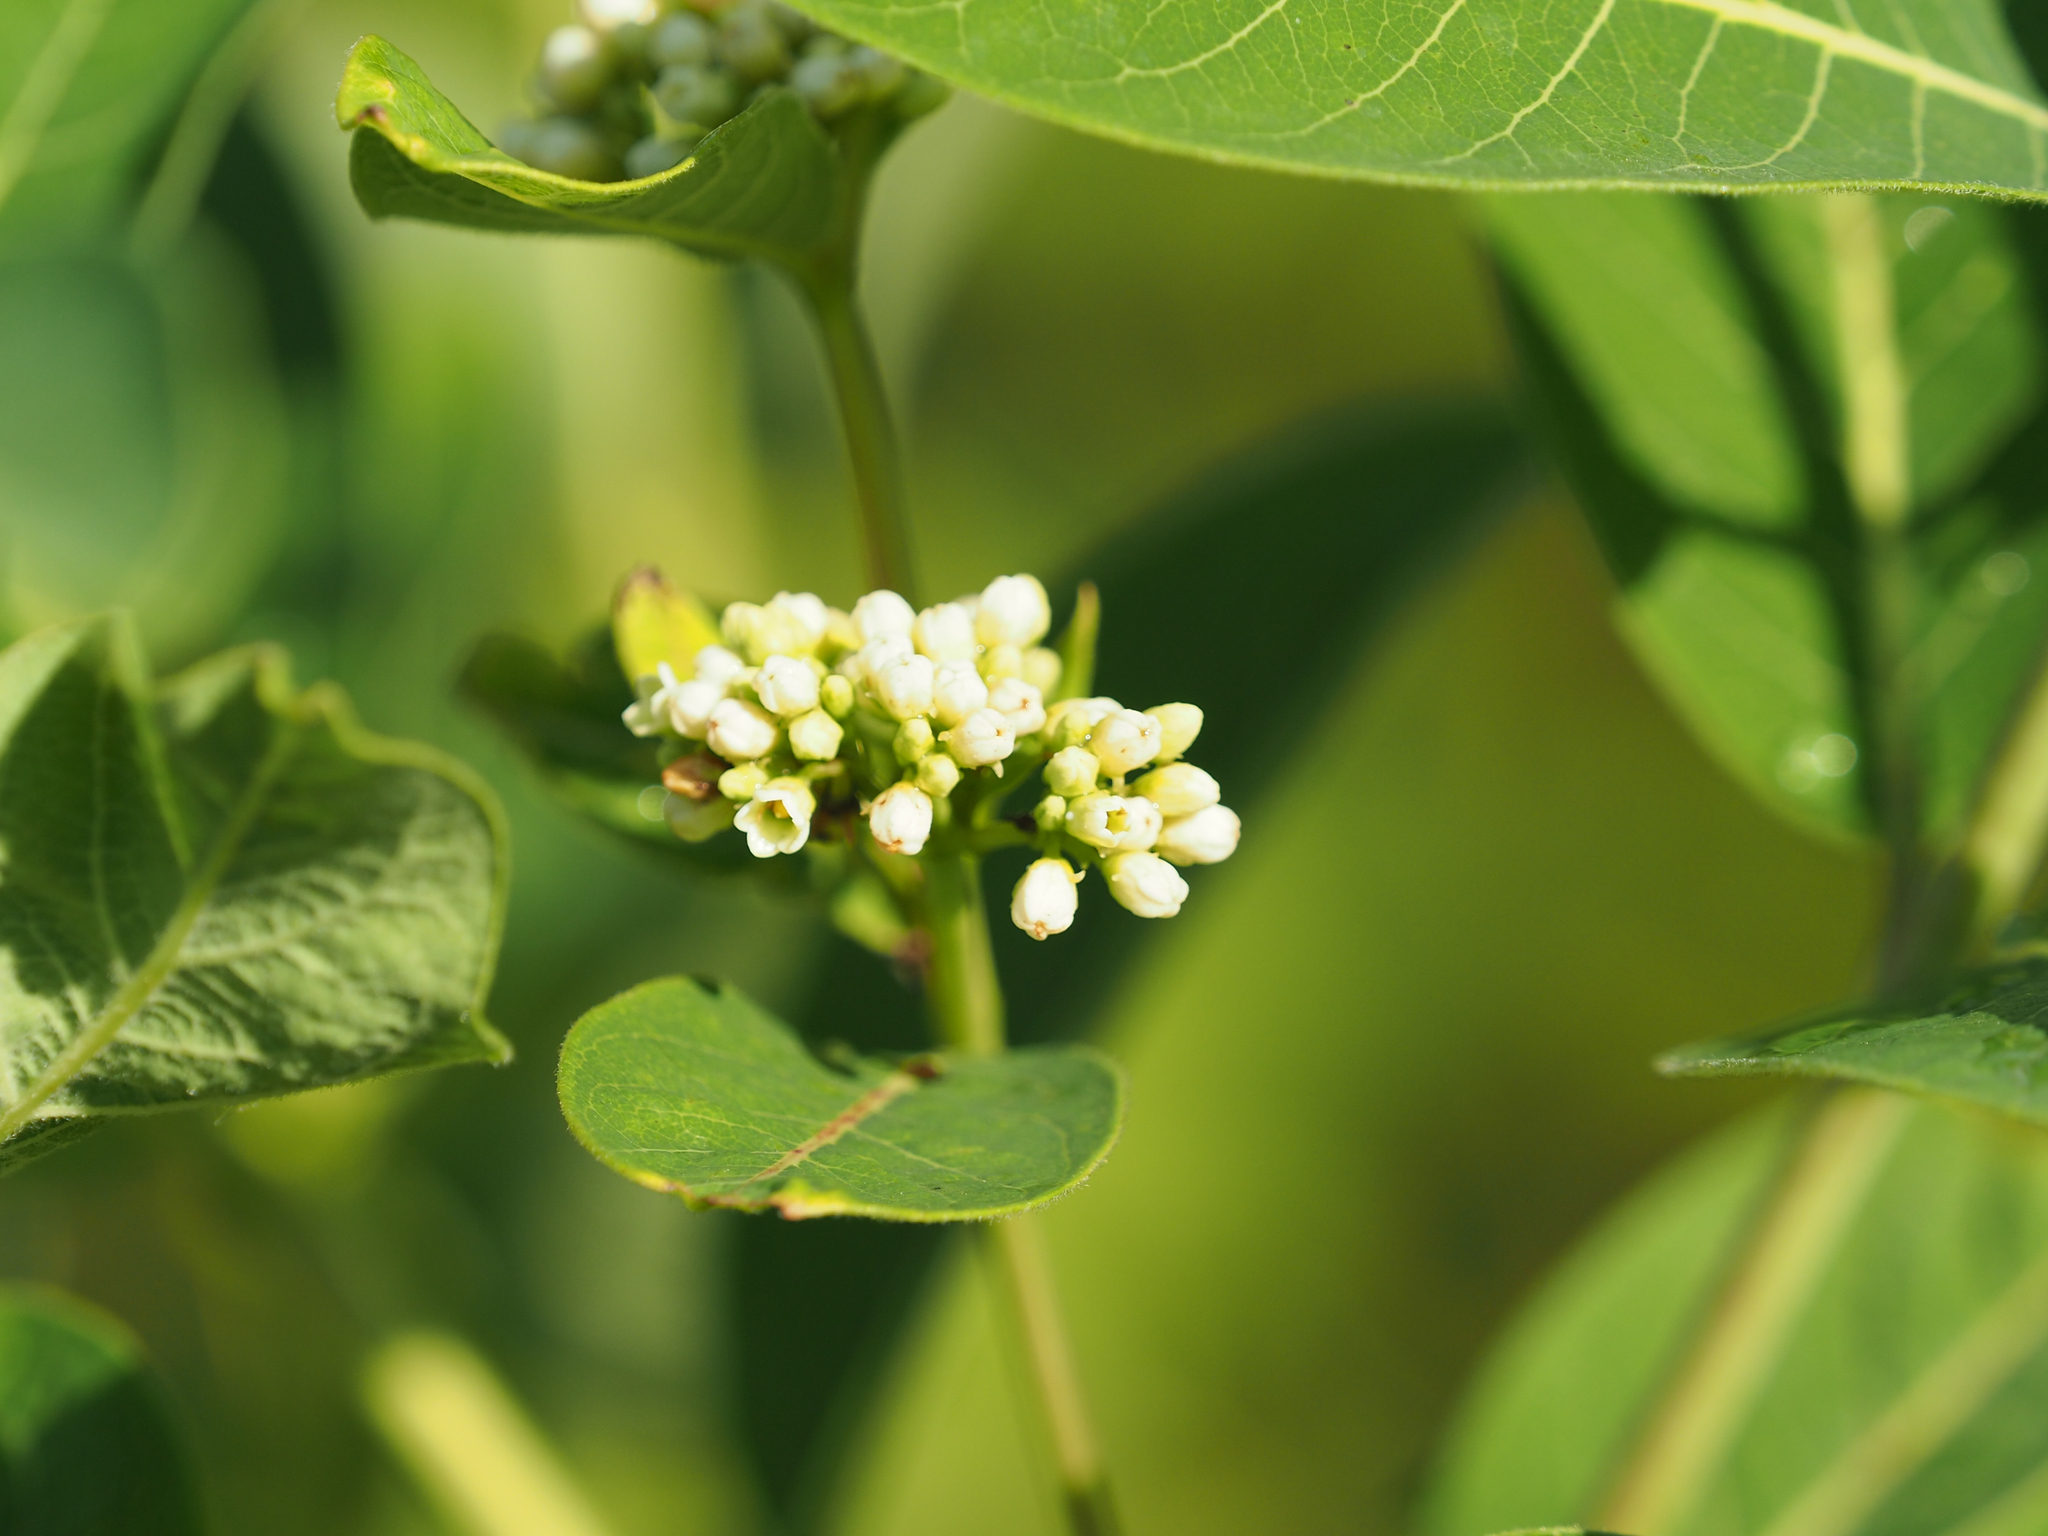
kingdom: Plantae
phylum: Tracheophyta
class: Magnoliopsida
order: Gentianales
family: Apocynaceae
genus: Apocynum
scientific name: Apocynum cannabinum
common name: Hemp dogbane
